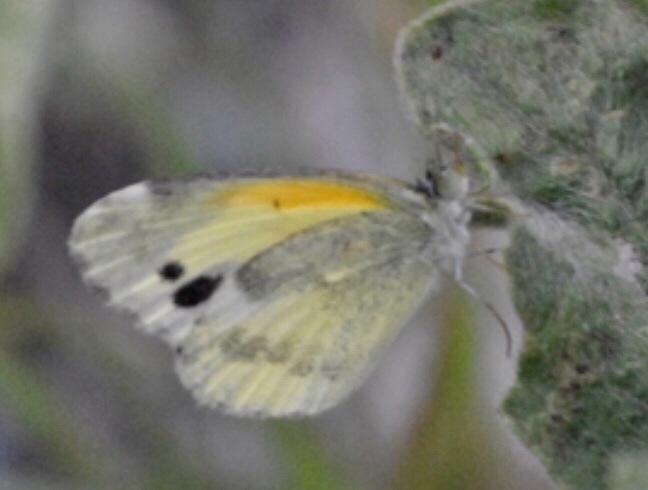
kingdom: Animalia
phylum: Arthropoda
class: Insecta
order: Lepidoptera
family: Pieridae
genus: Nathalis
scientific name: Nathalis iole
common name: Dainty sulphur
